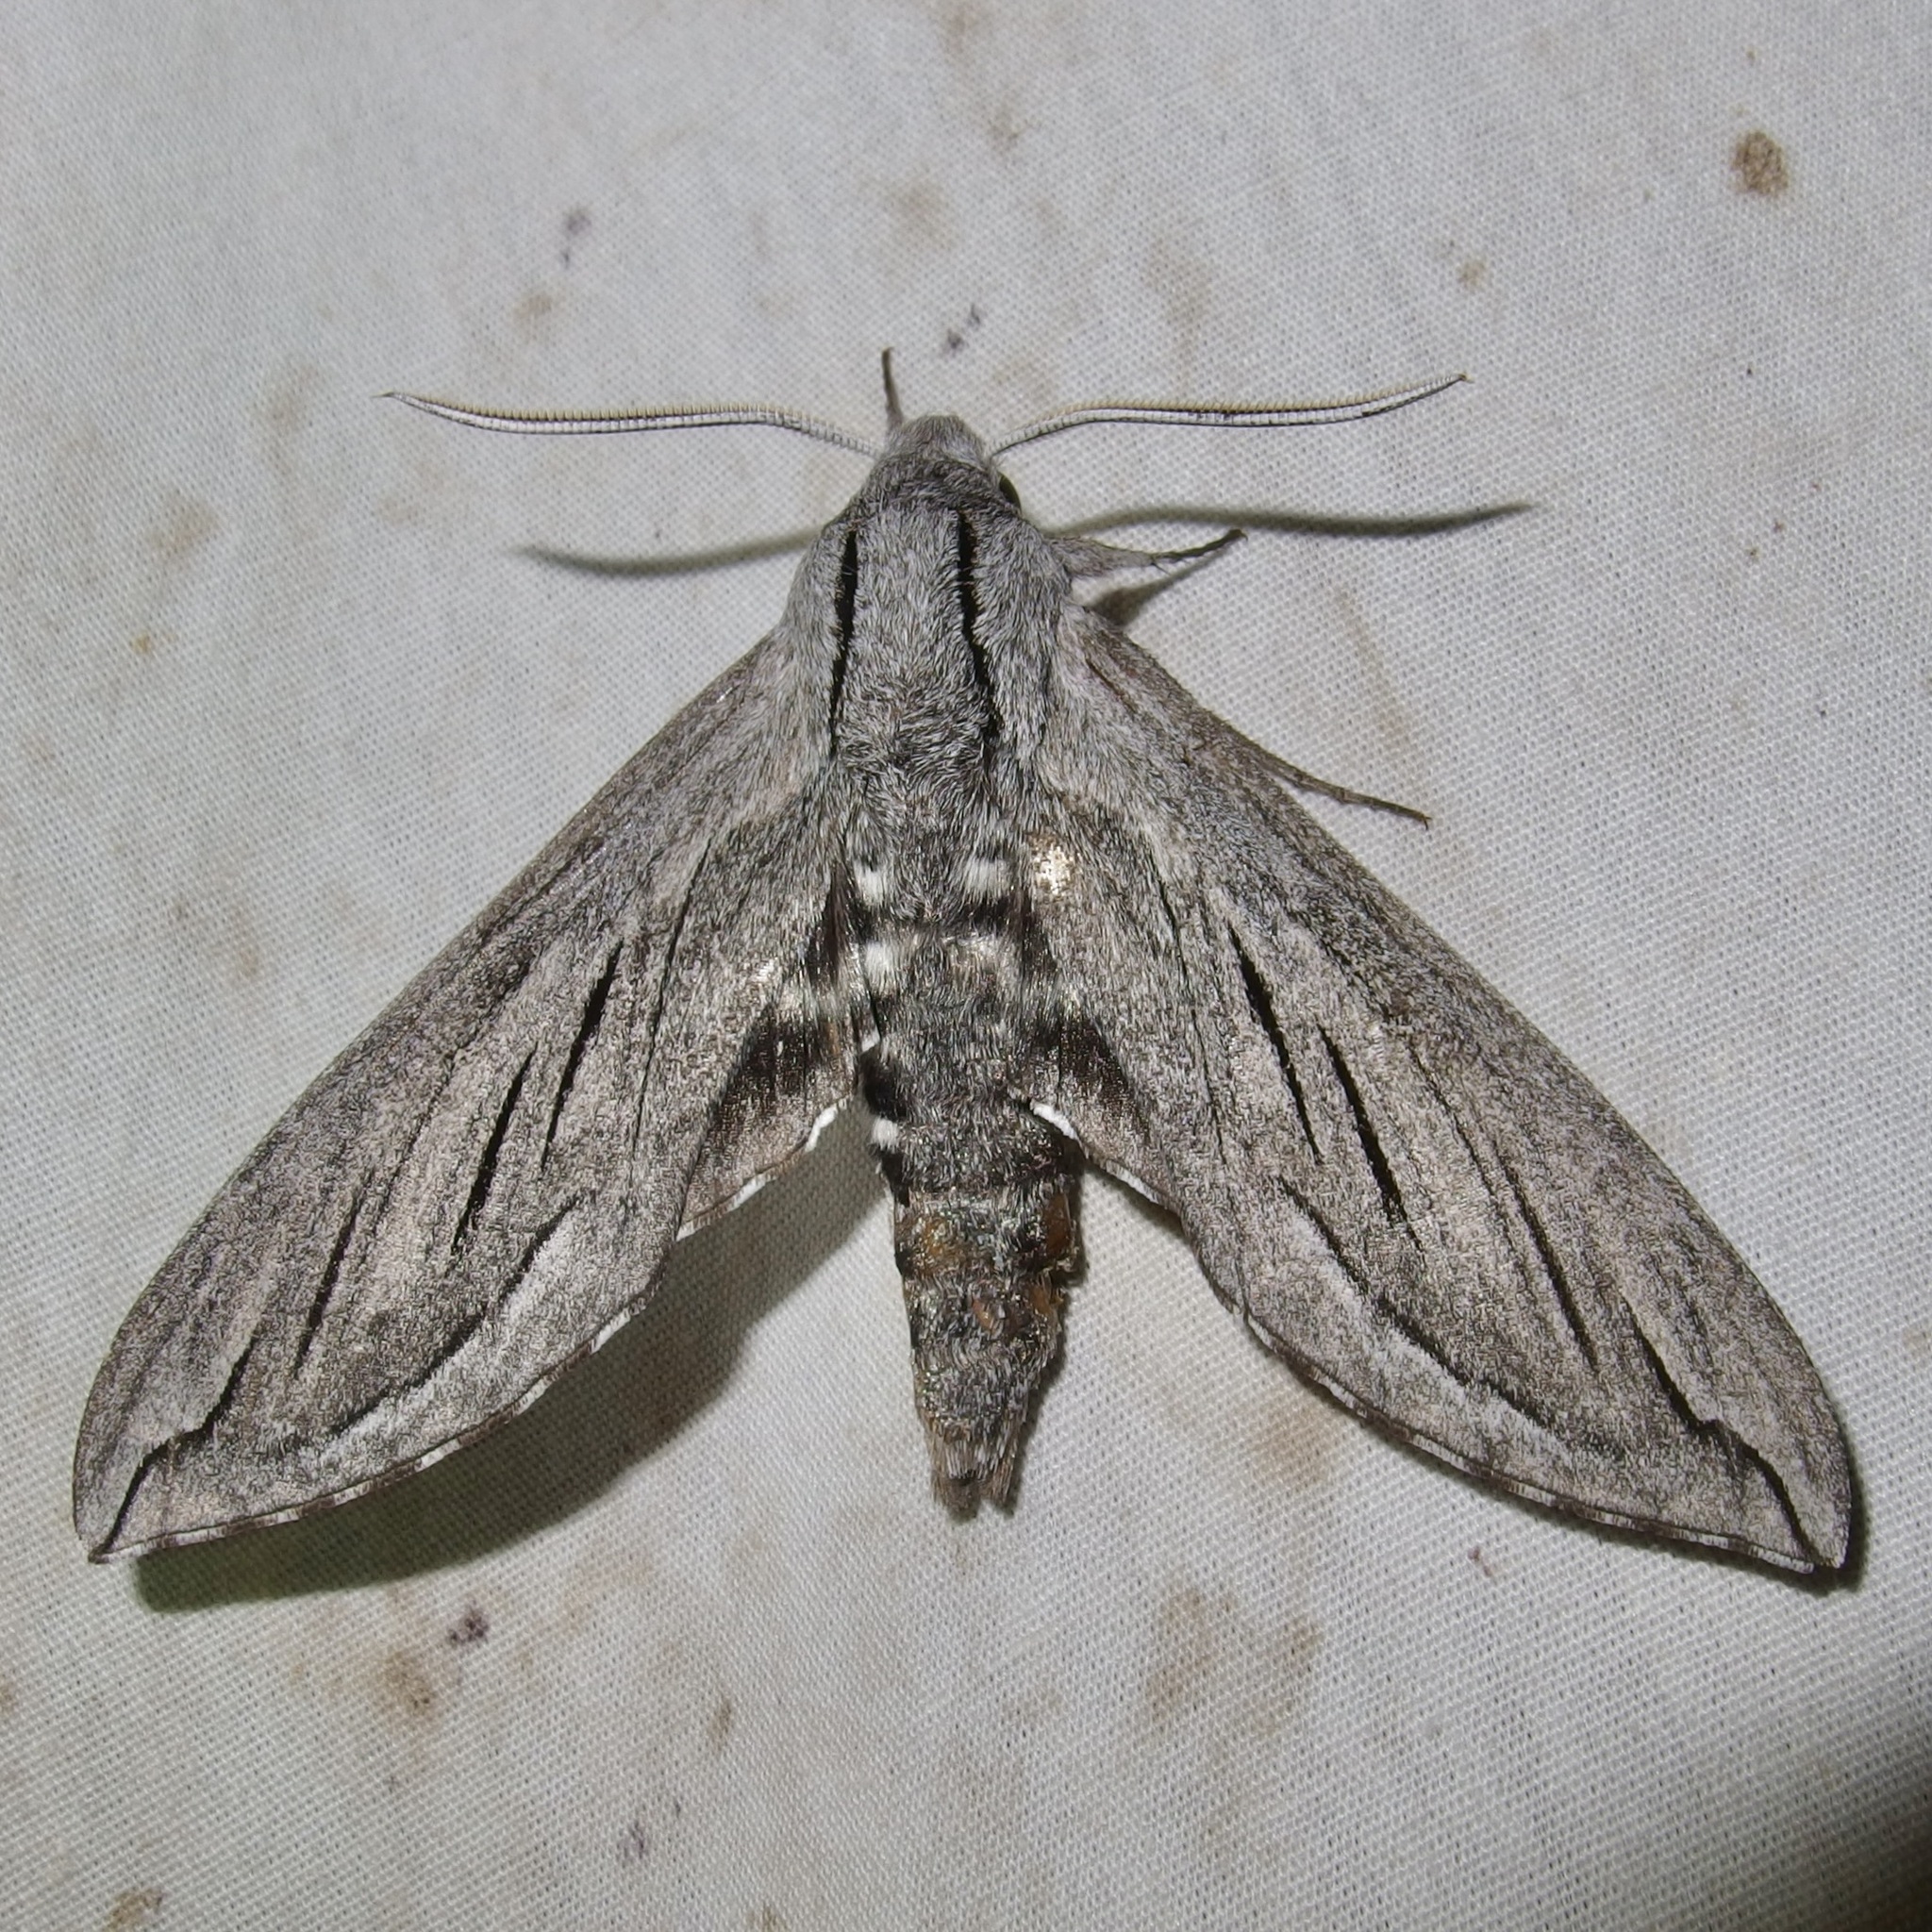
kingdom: Animalia
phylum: Arthropoda
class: Insecta
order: Lepidoptera
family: Sphingidae
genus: Sphinx
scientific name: Sphinx chersis
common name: Great ash sphinx
